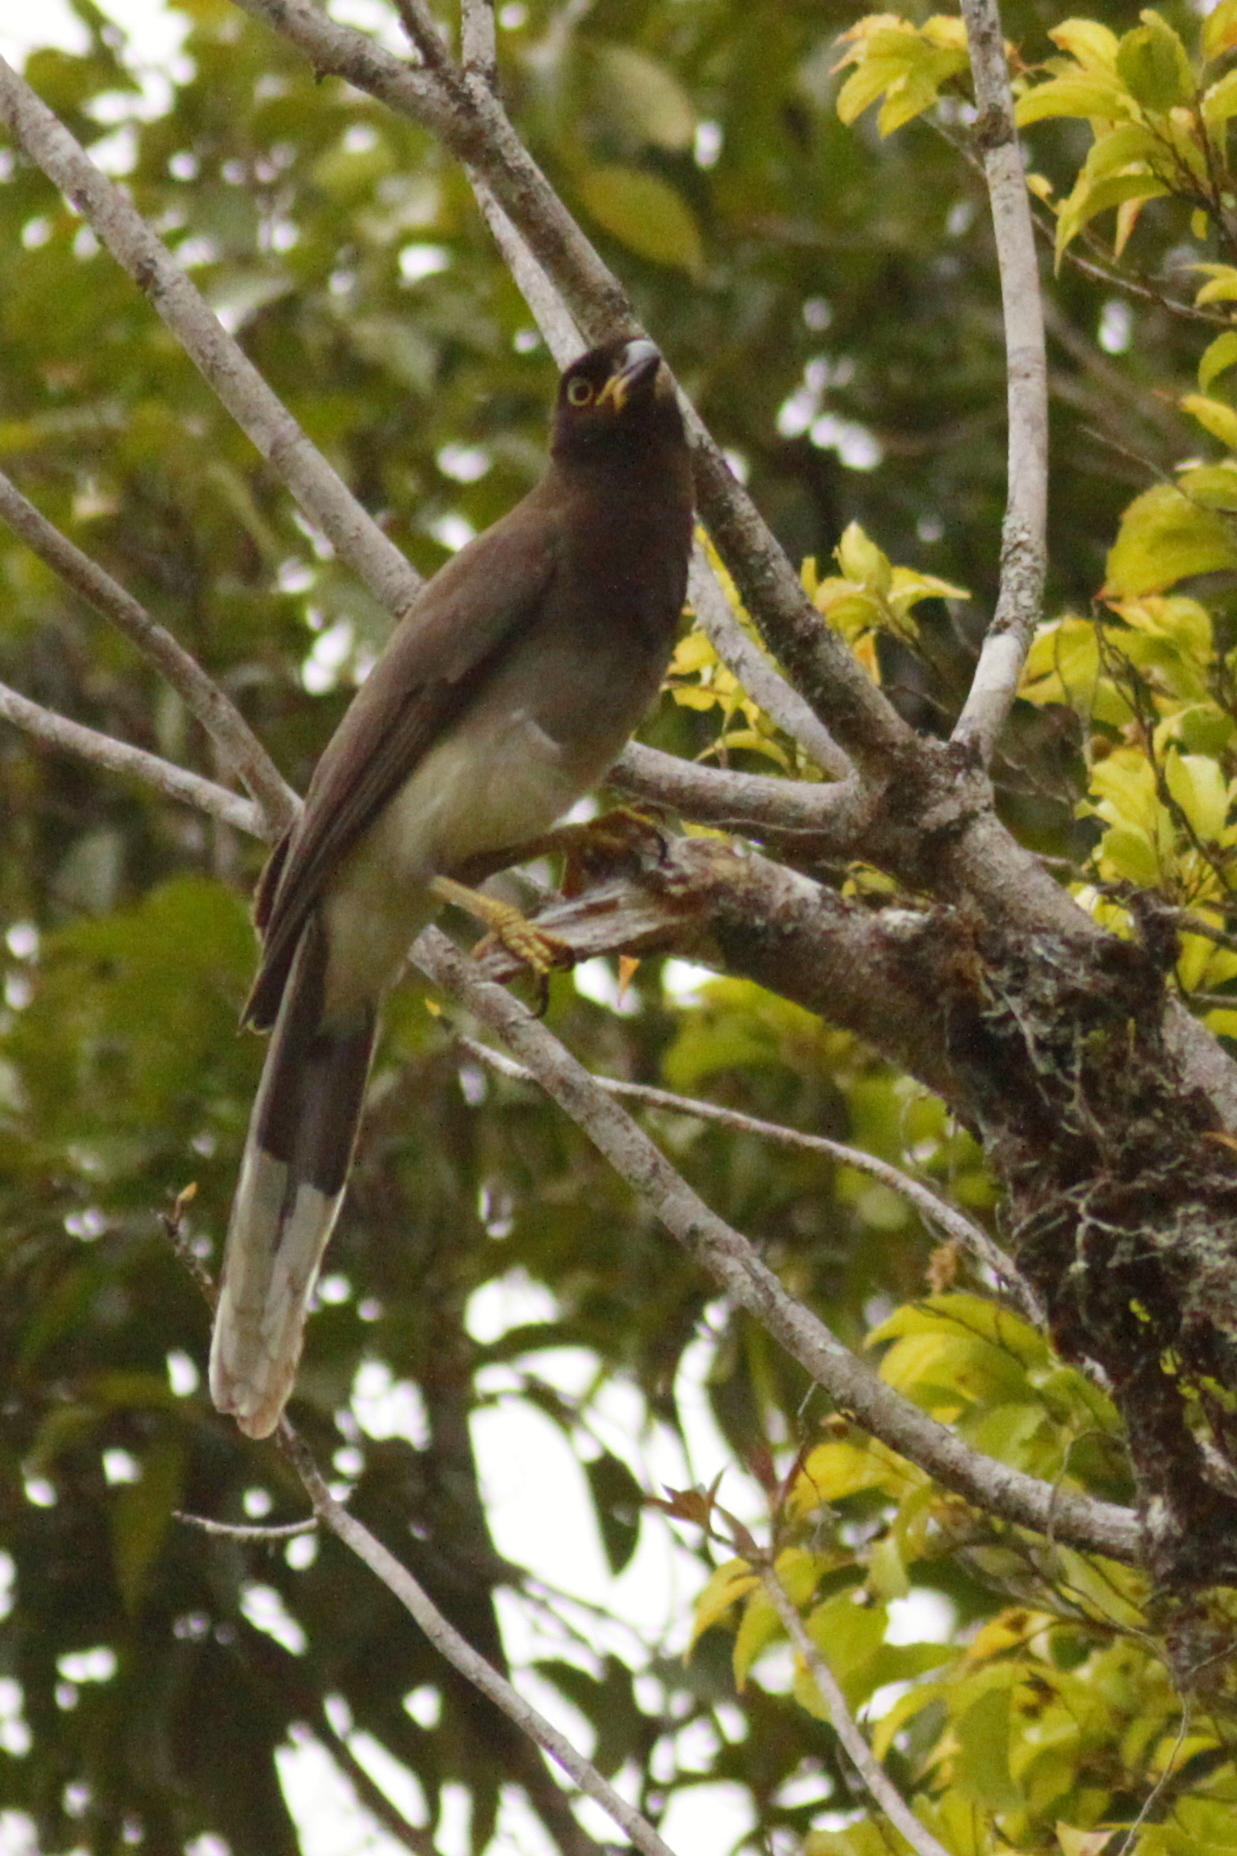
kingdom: Animalia
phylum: Chordata
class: Aves
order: Passeriformes
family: Corvidae
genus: Psilorhinus
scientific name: Psilorhinus morio
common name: Brown jay
